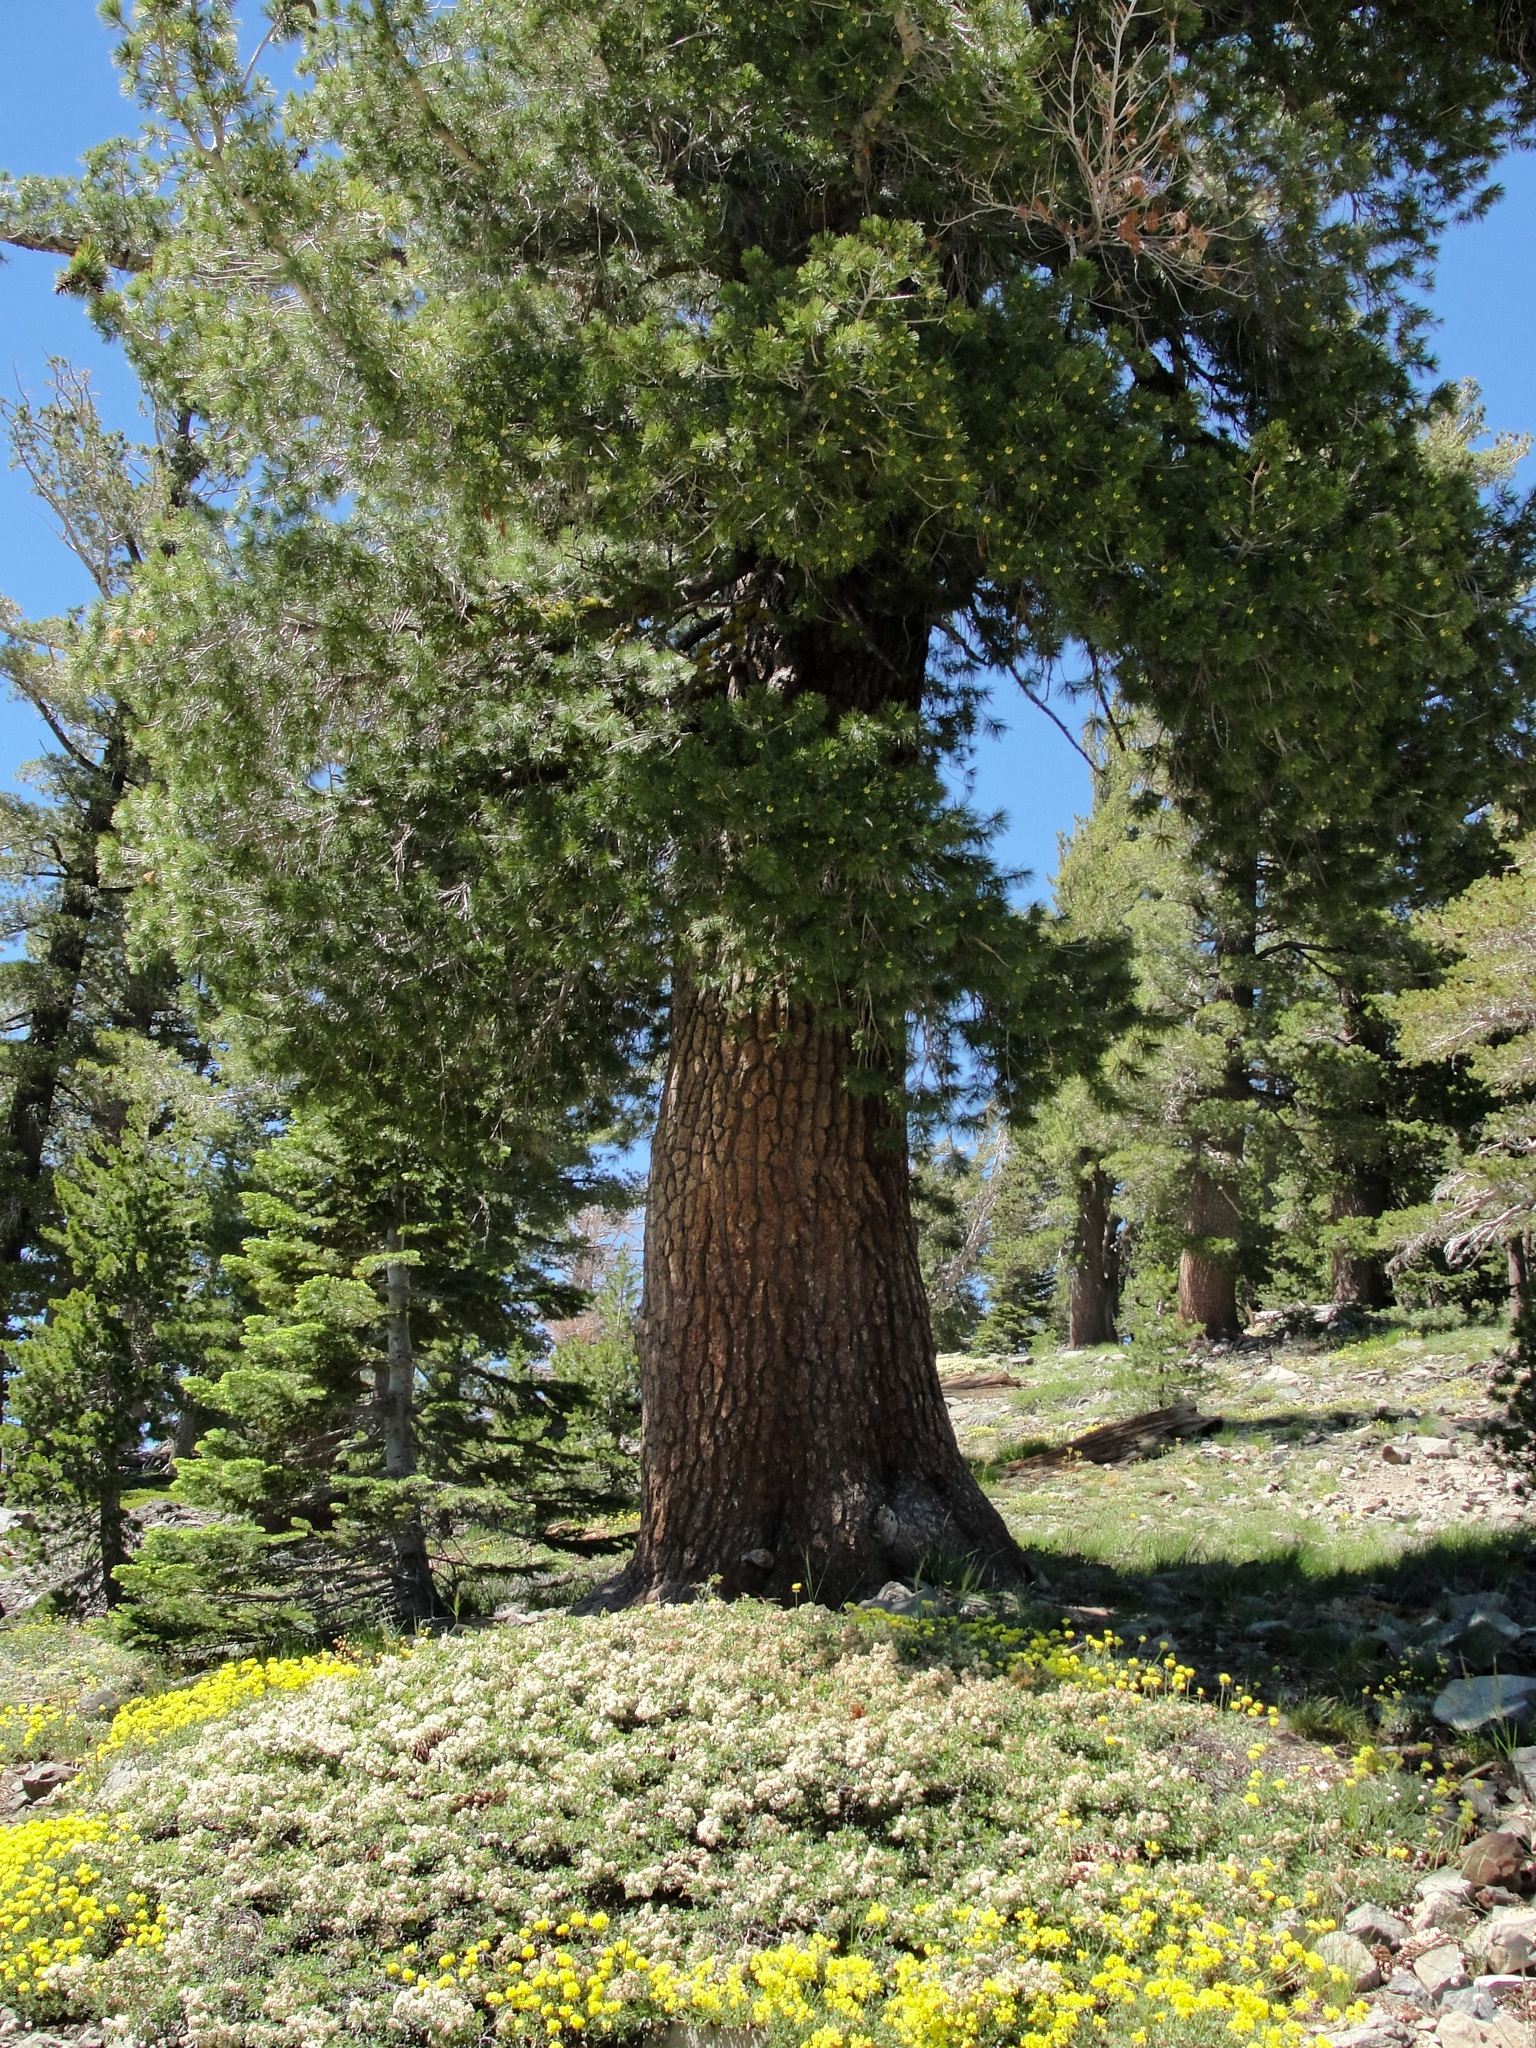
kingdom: Plantae
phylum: Tracheophyta
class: Pinopsida
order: Pinales
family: Pinaceae
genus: Pinus
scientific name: Pinus monticola
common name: Western white pine
